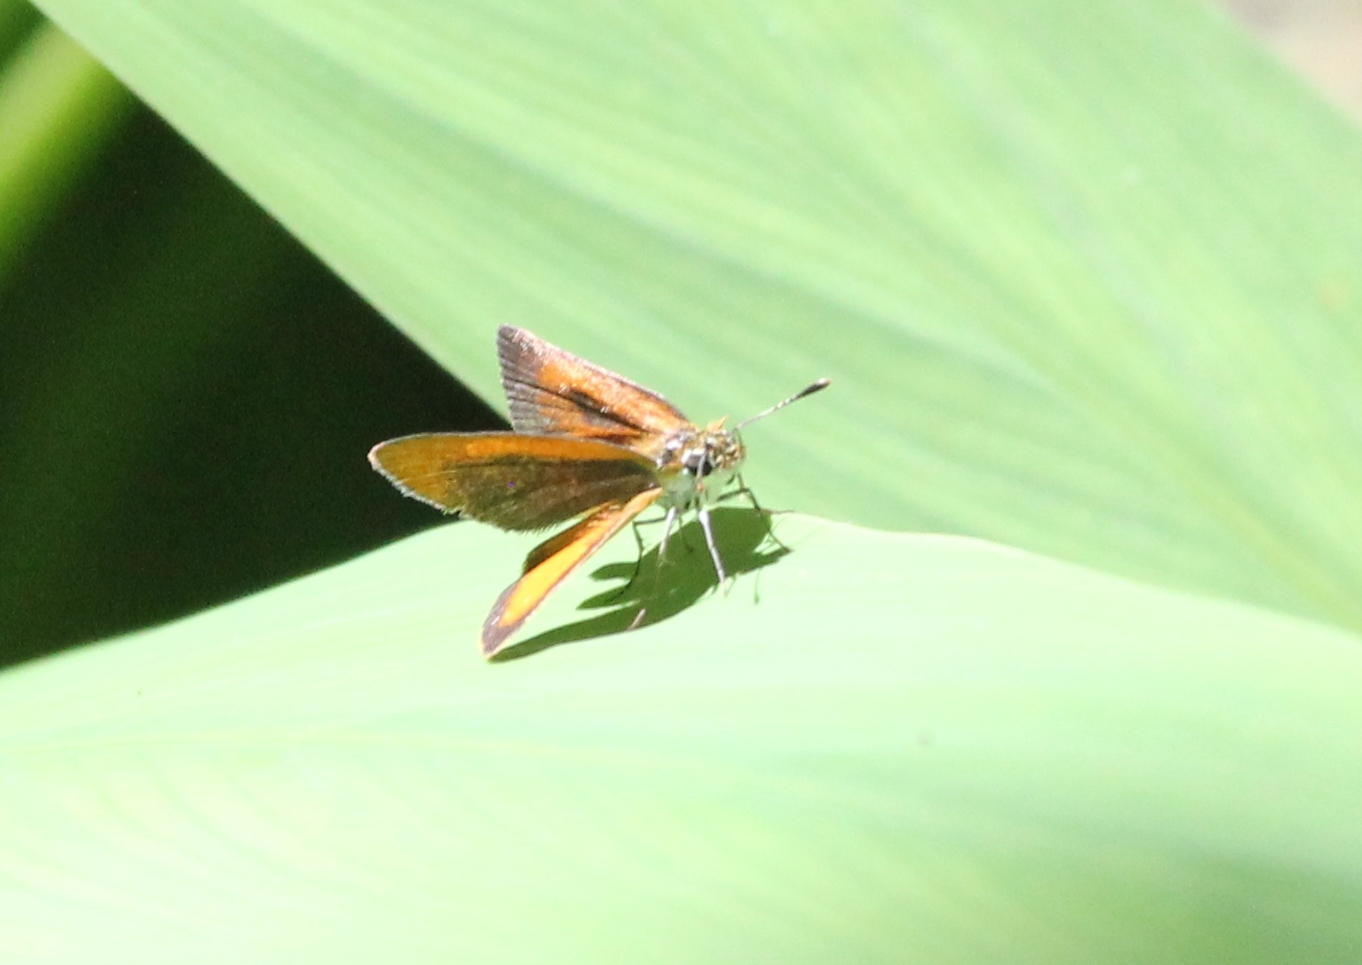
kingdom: Animalia
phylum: Arthropoda
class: Insecta
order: Lepidoptera
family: Hesperiidae
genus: Ancyloxypha
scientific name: Ancyloxypha numitor
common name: Least skipper
